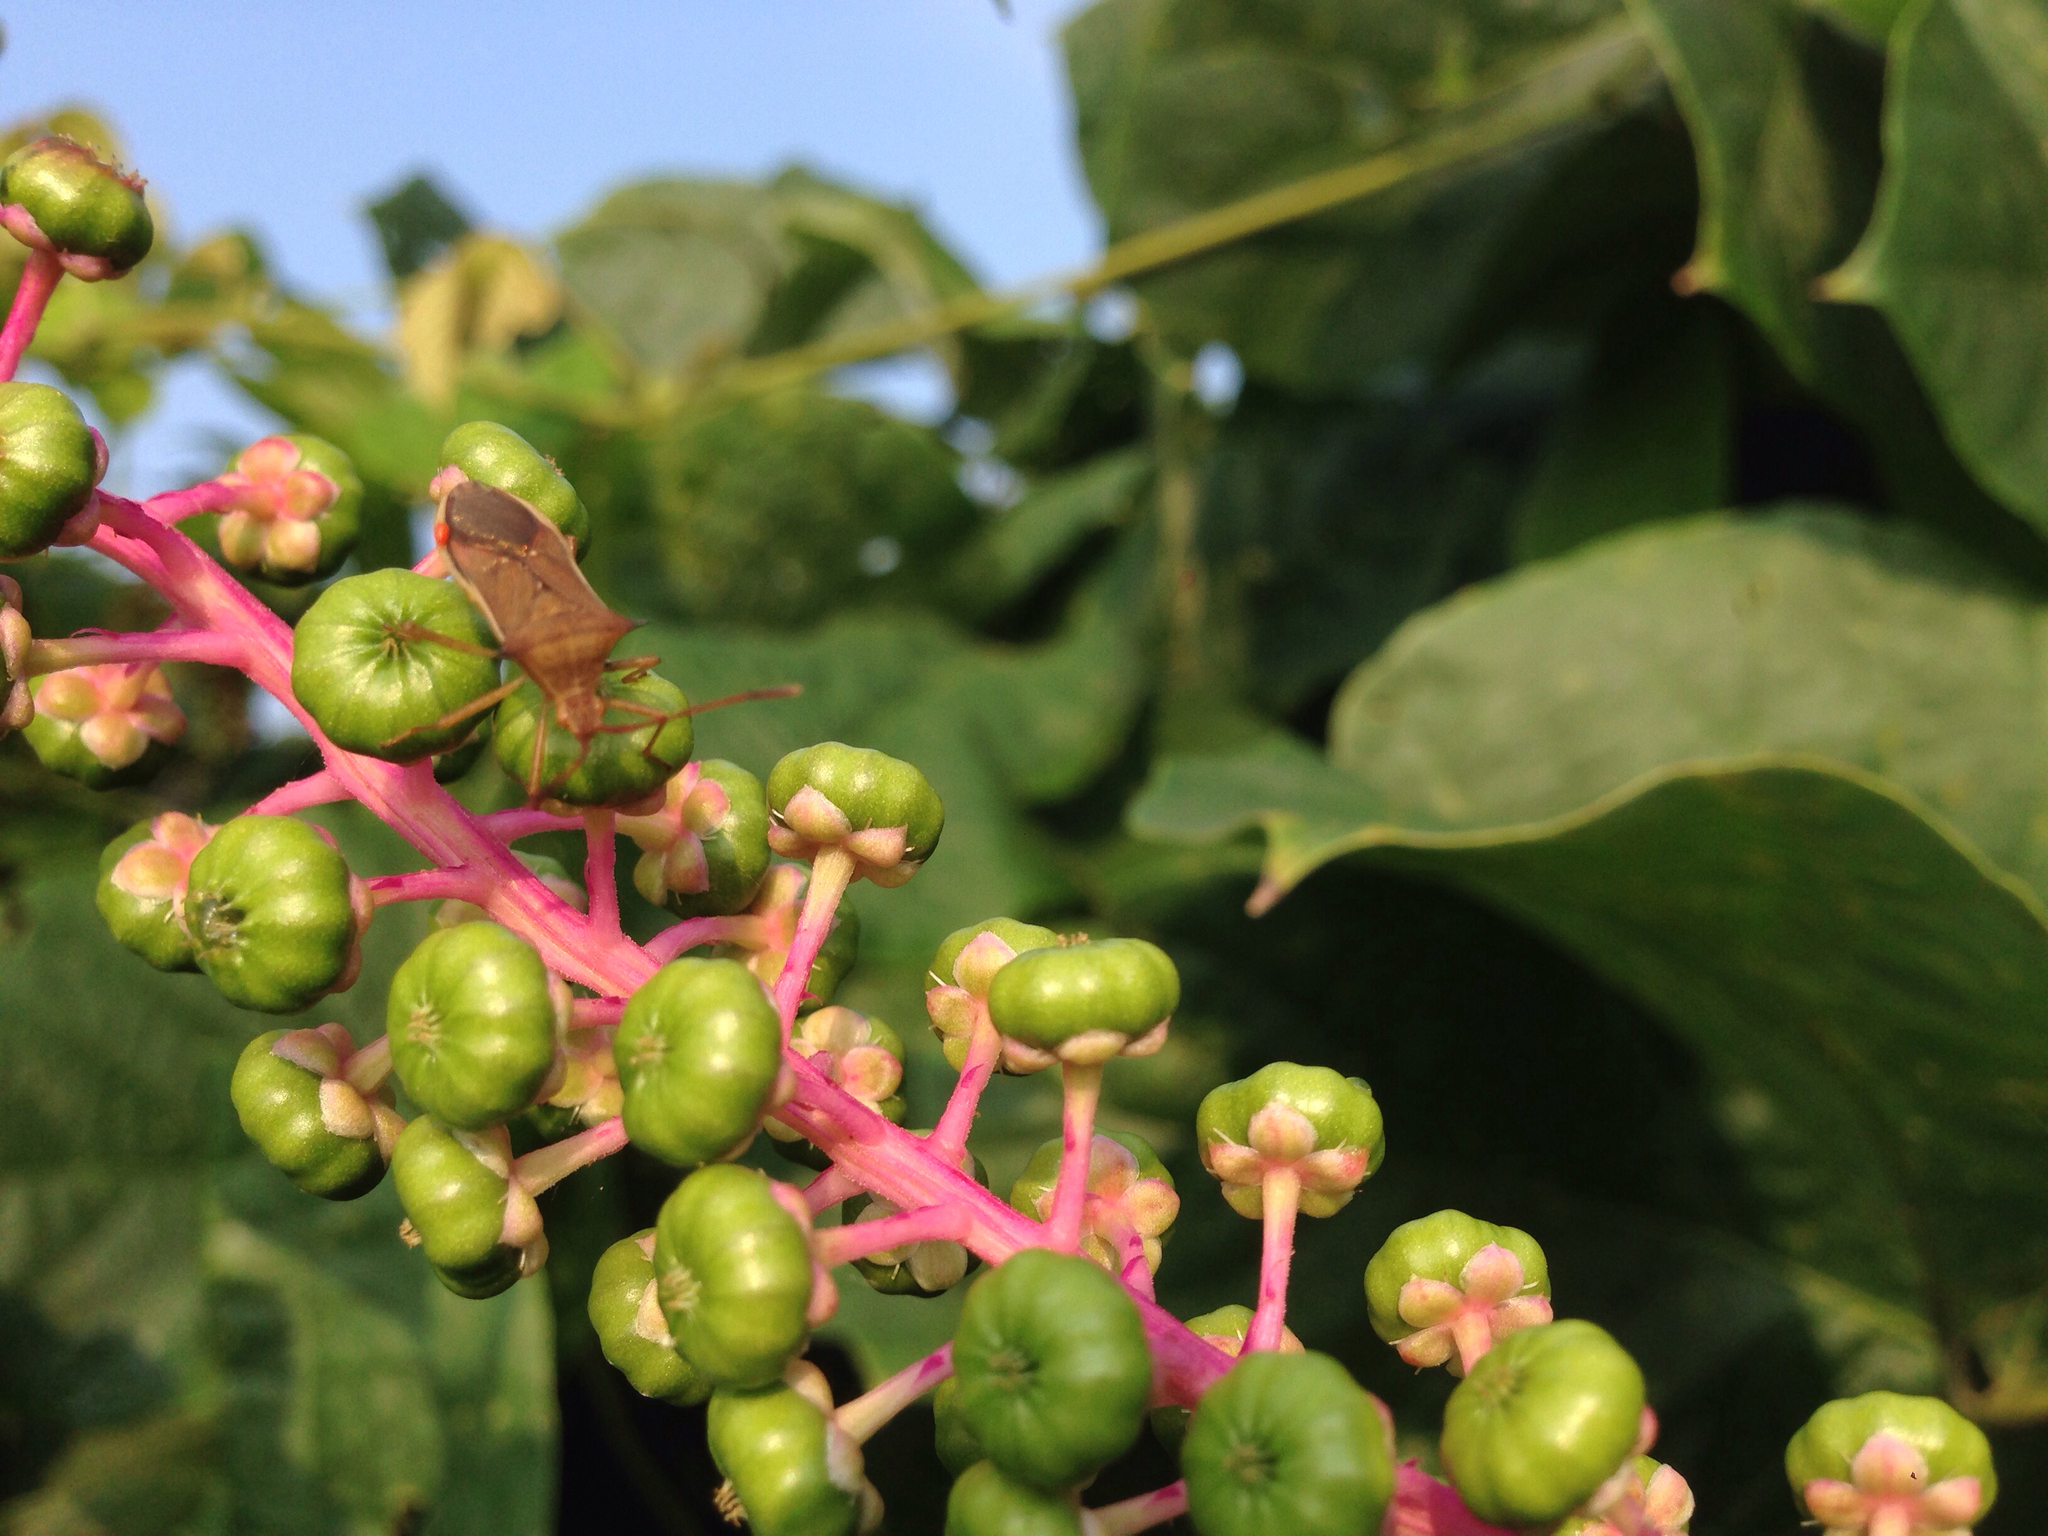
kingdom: Plantae
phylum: Tracheophyta
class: Magnoliopsida
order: Caryophyllales
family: Phytolaccaceae
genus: Phytolacca
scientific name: Phytolacca americana
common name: American pokeweed
